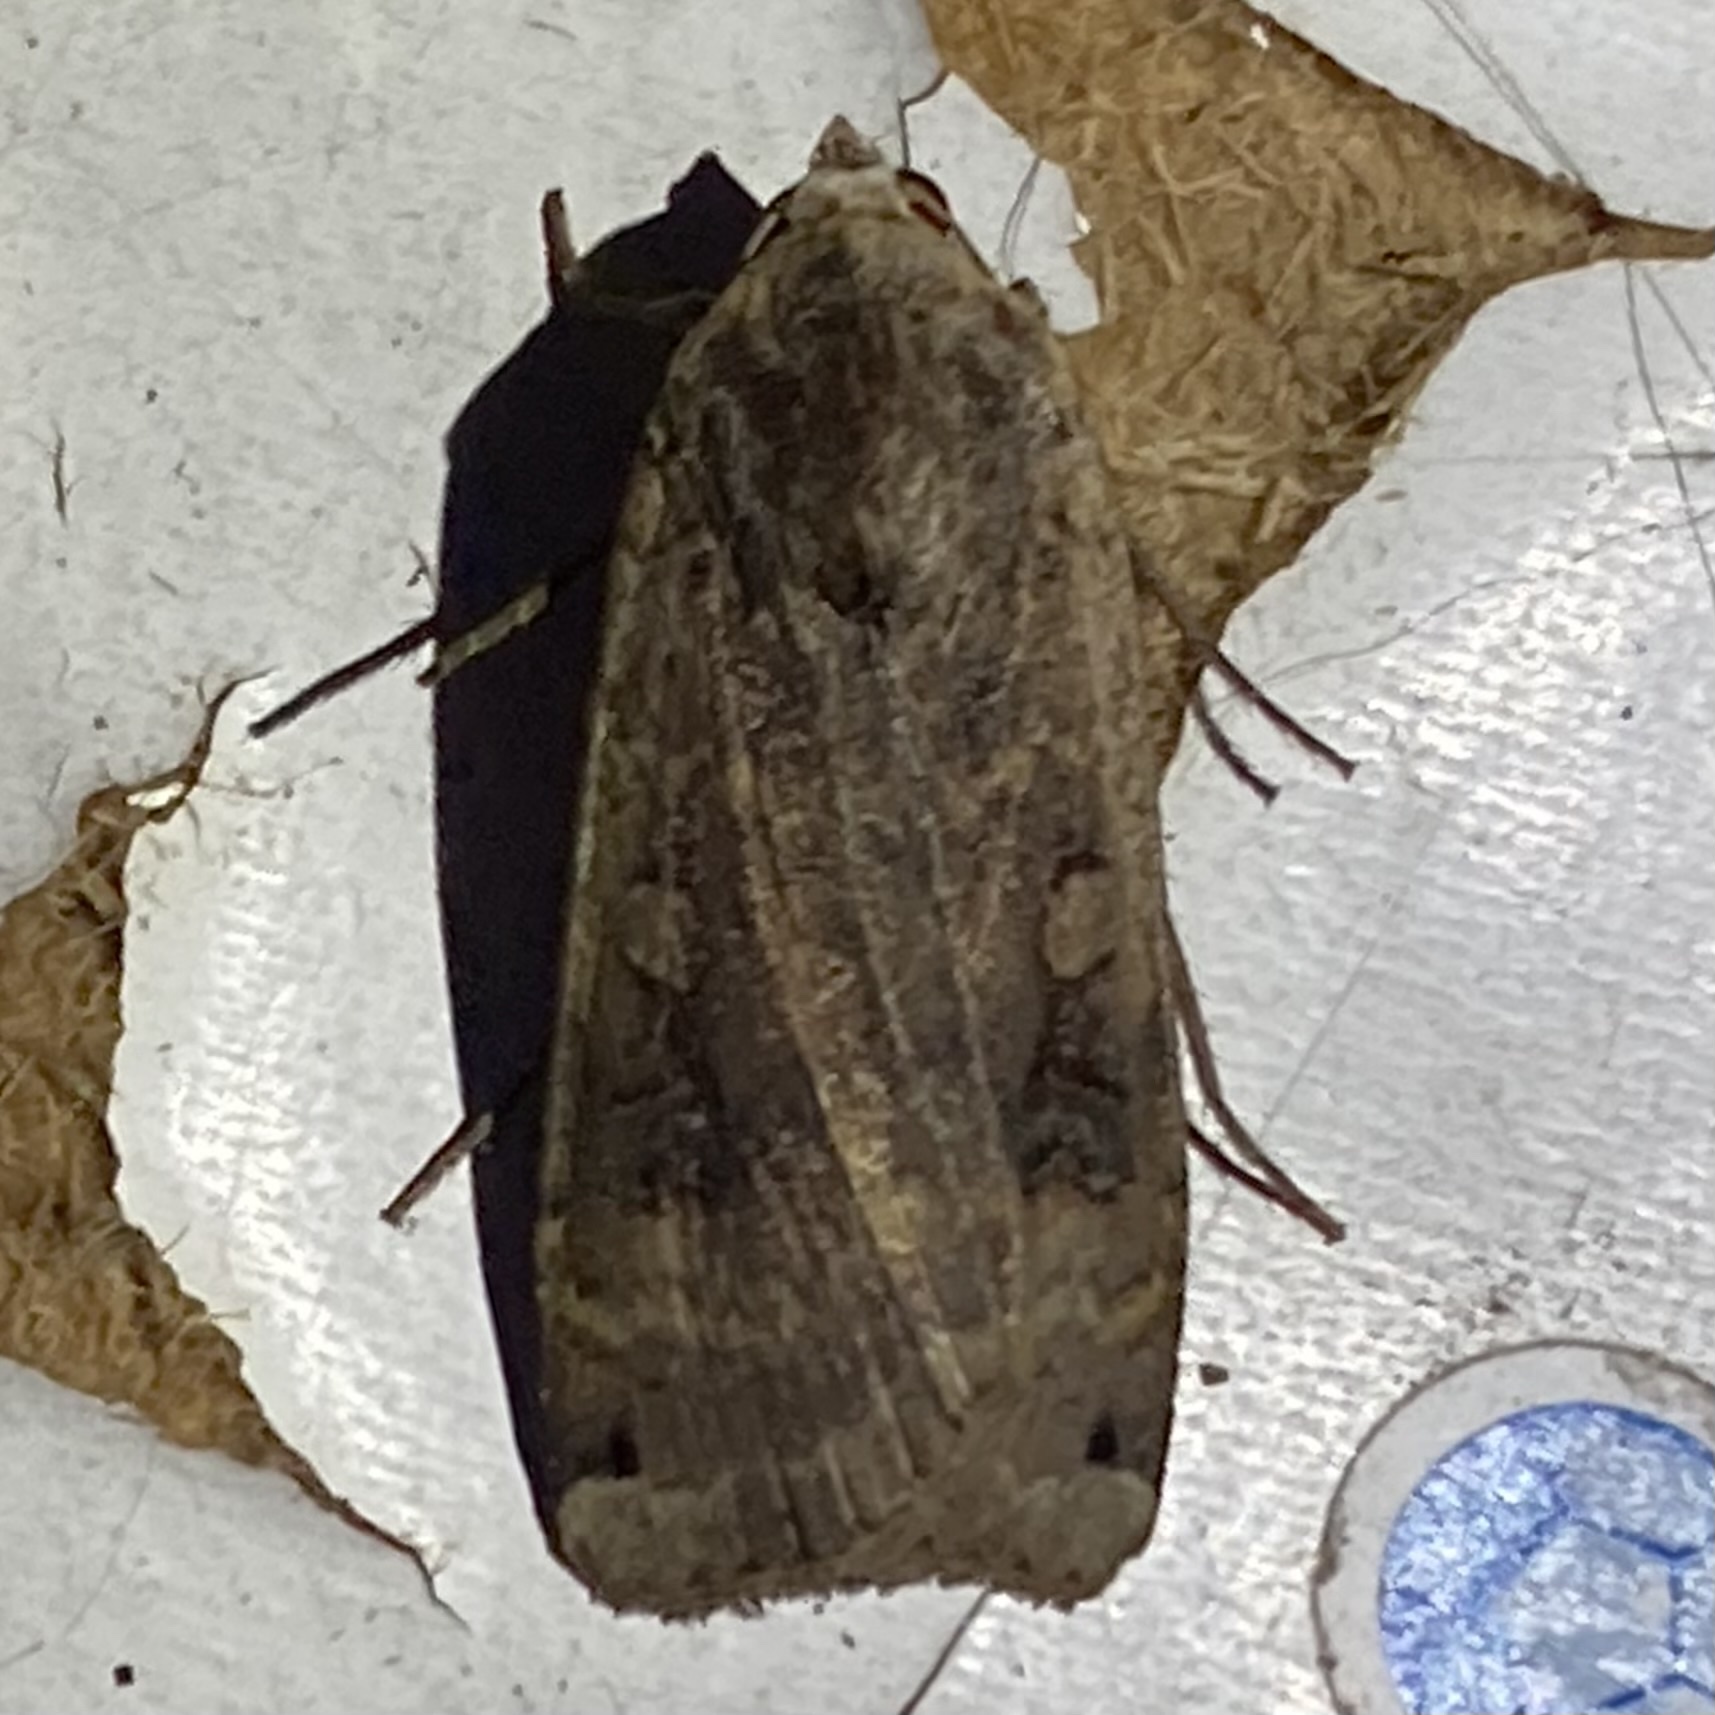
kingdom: Animalia
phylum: Arthropoda
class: Insecta
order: Lepidoptera
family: Noctuidae
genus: Noctua
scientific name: Noctua pronuba
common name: Large yellow underwing
